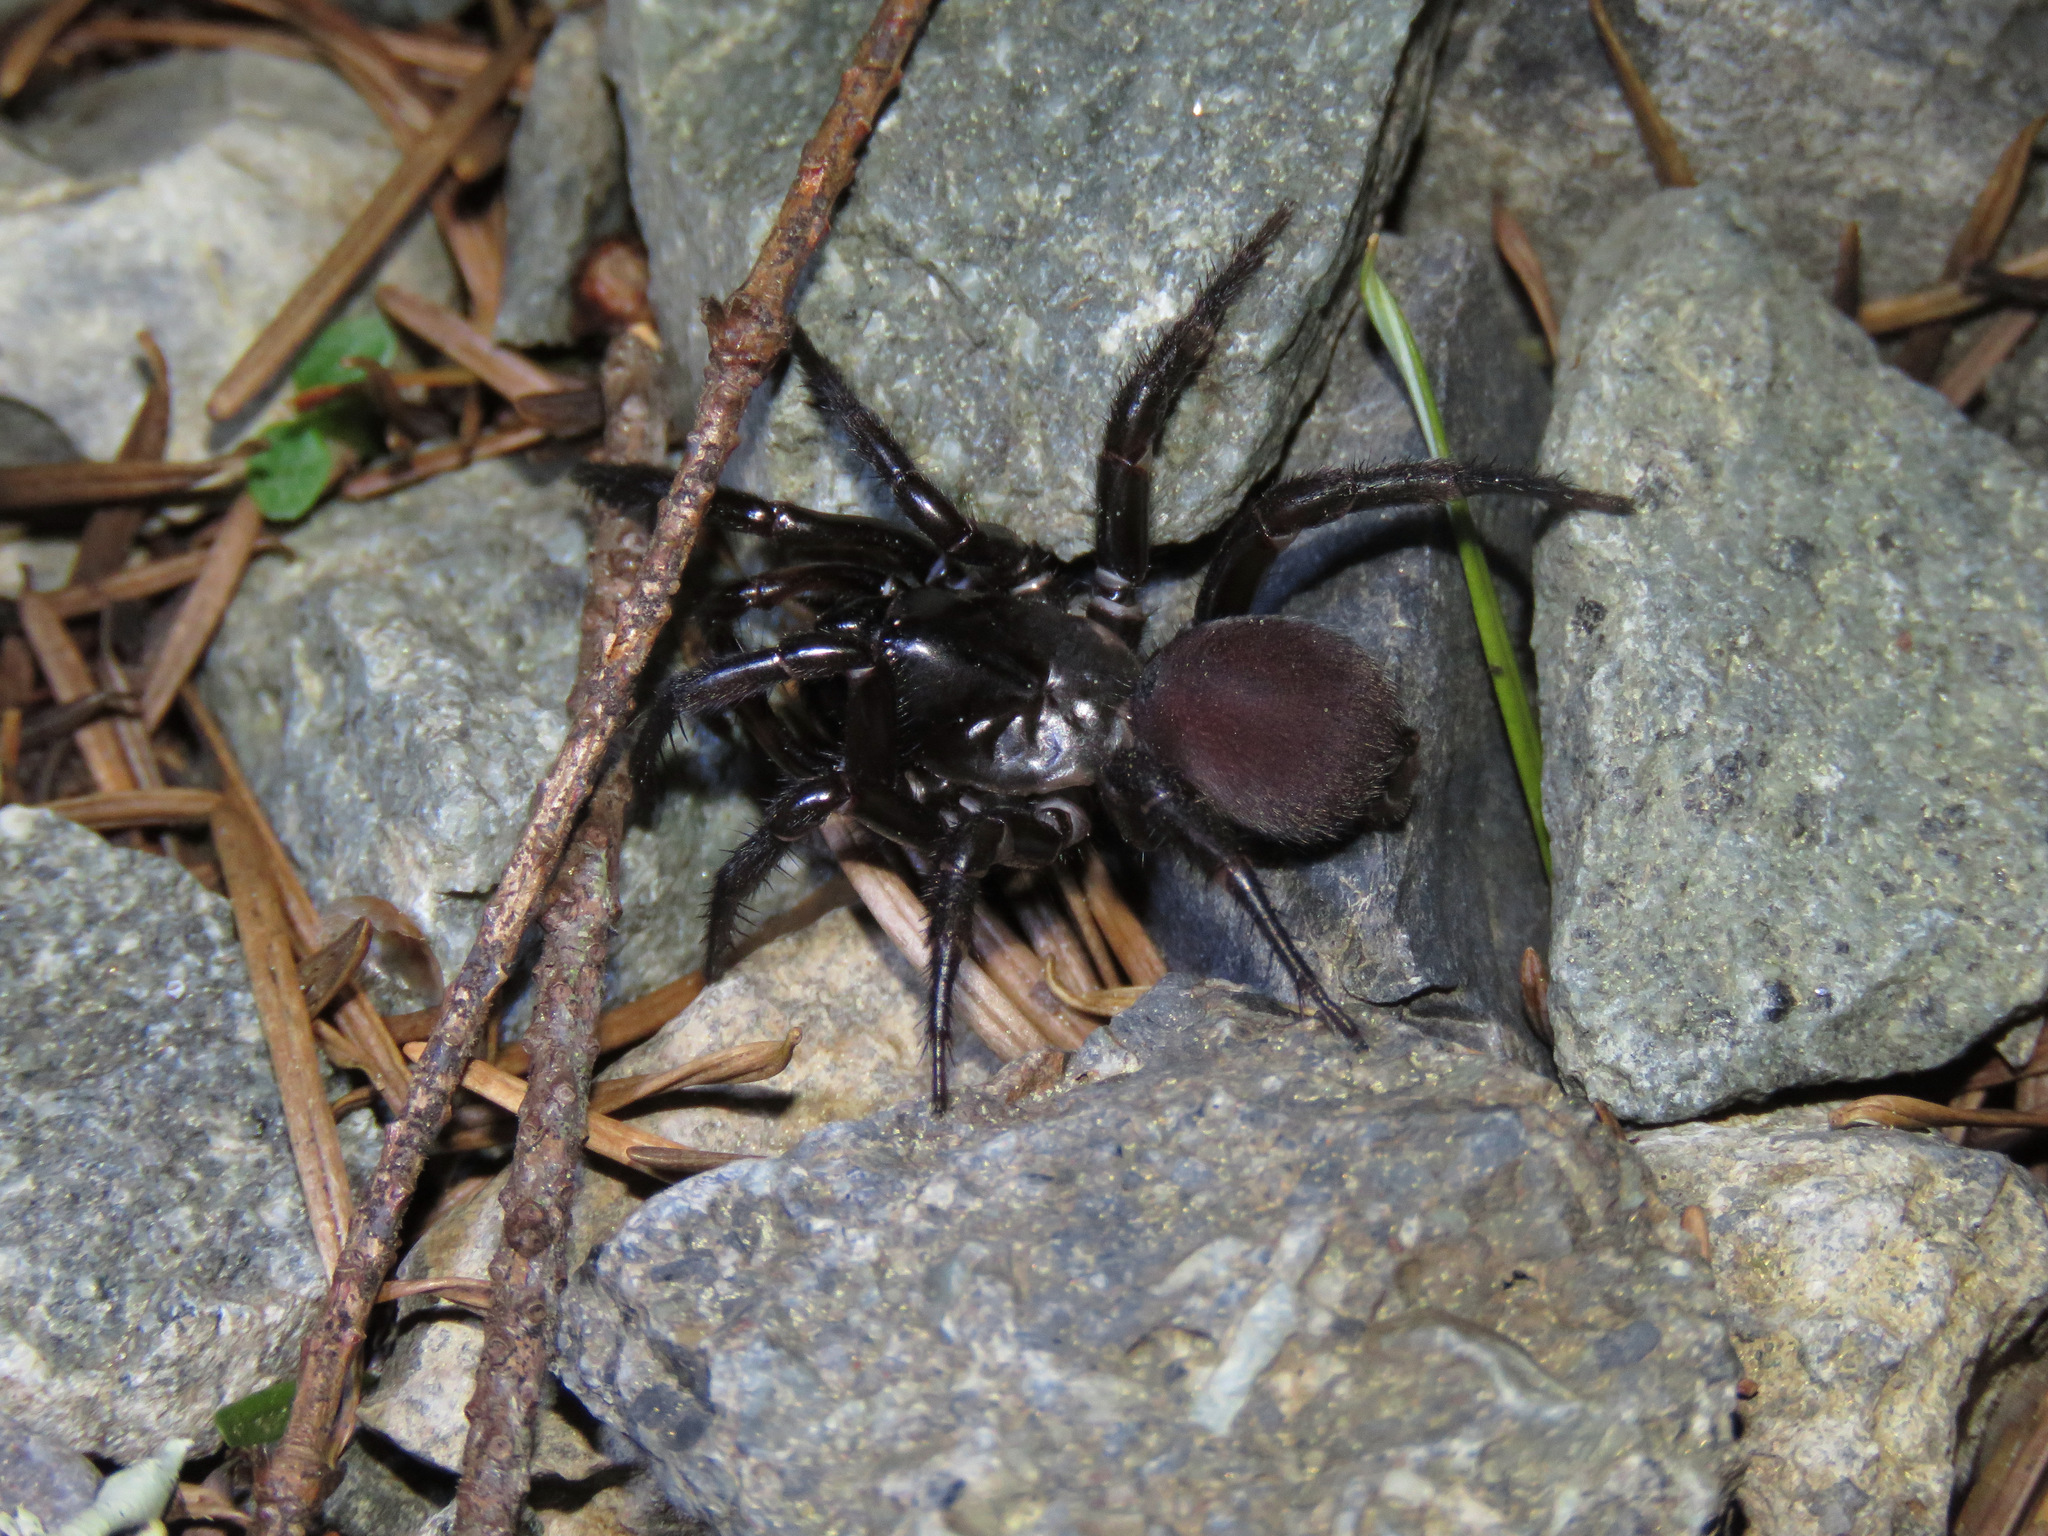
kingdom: Animalia
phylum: Arthropoda
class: Arachnida
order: Araneae
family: Antrodiaetidae
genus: Antrodiaetus
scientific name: Antrodiaetus pacificus
